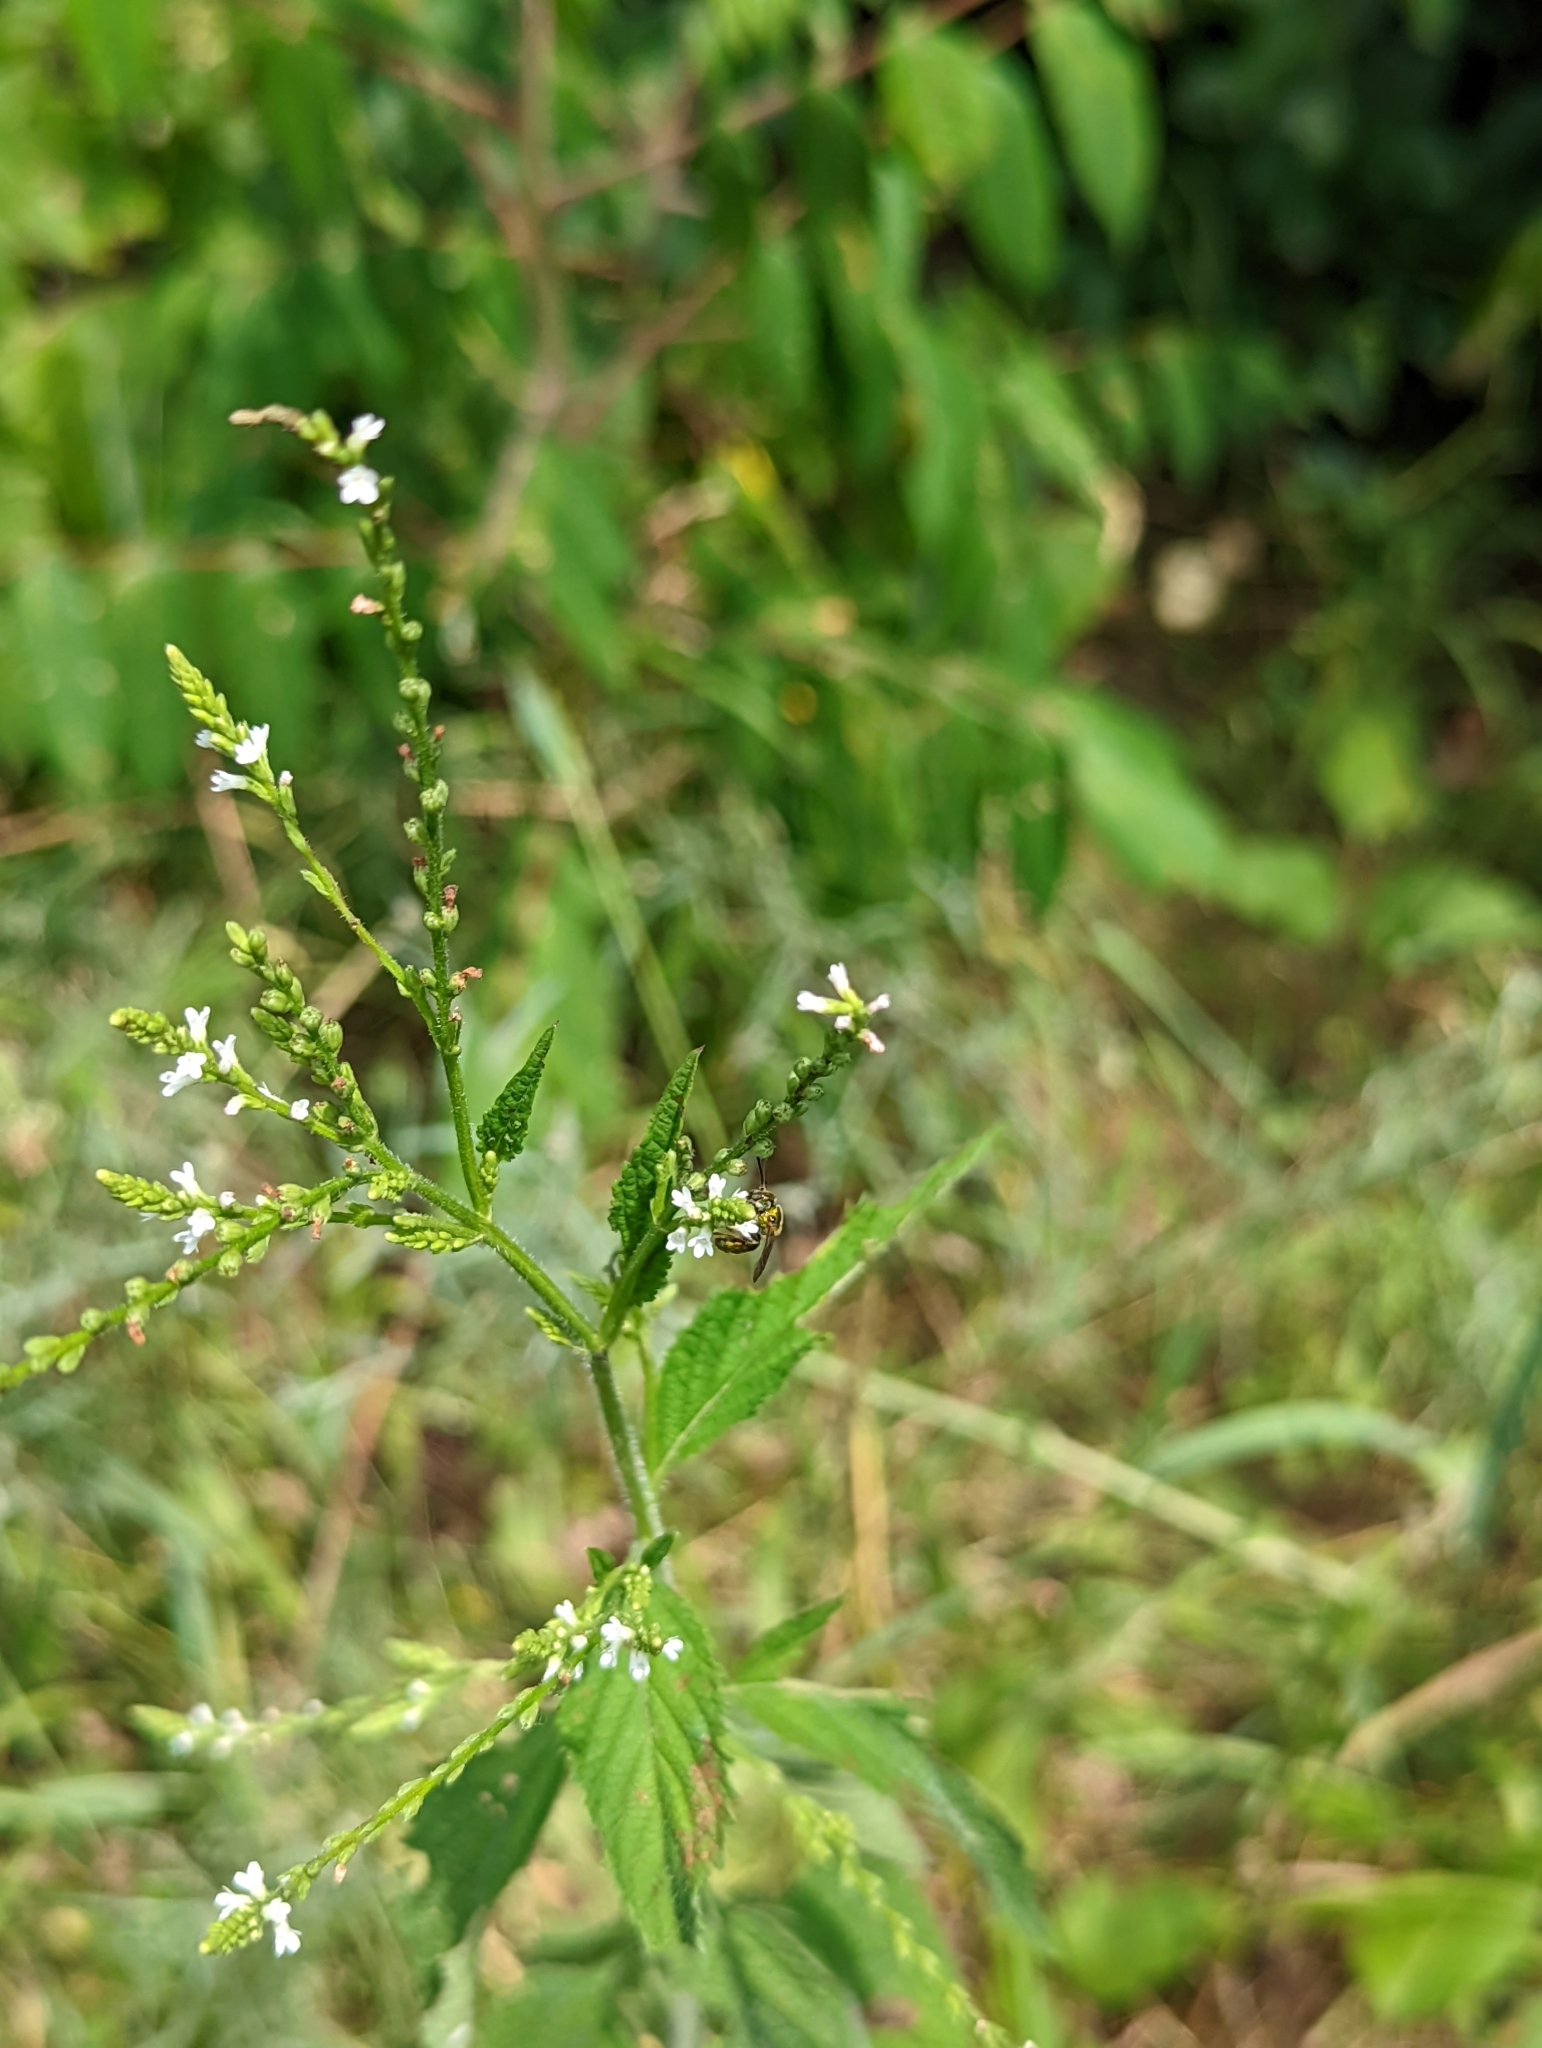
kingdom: Plantae
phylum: Tracheophyta
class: Magnoliopsida
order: Lamiales
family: Verbenaceae
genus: Verbena
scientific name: Verbena urticifolia
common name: Nettle-leaved vervain
